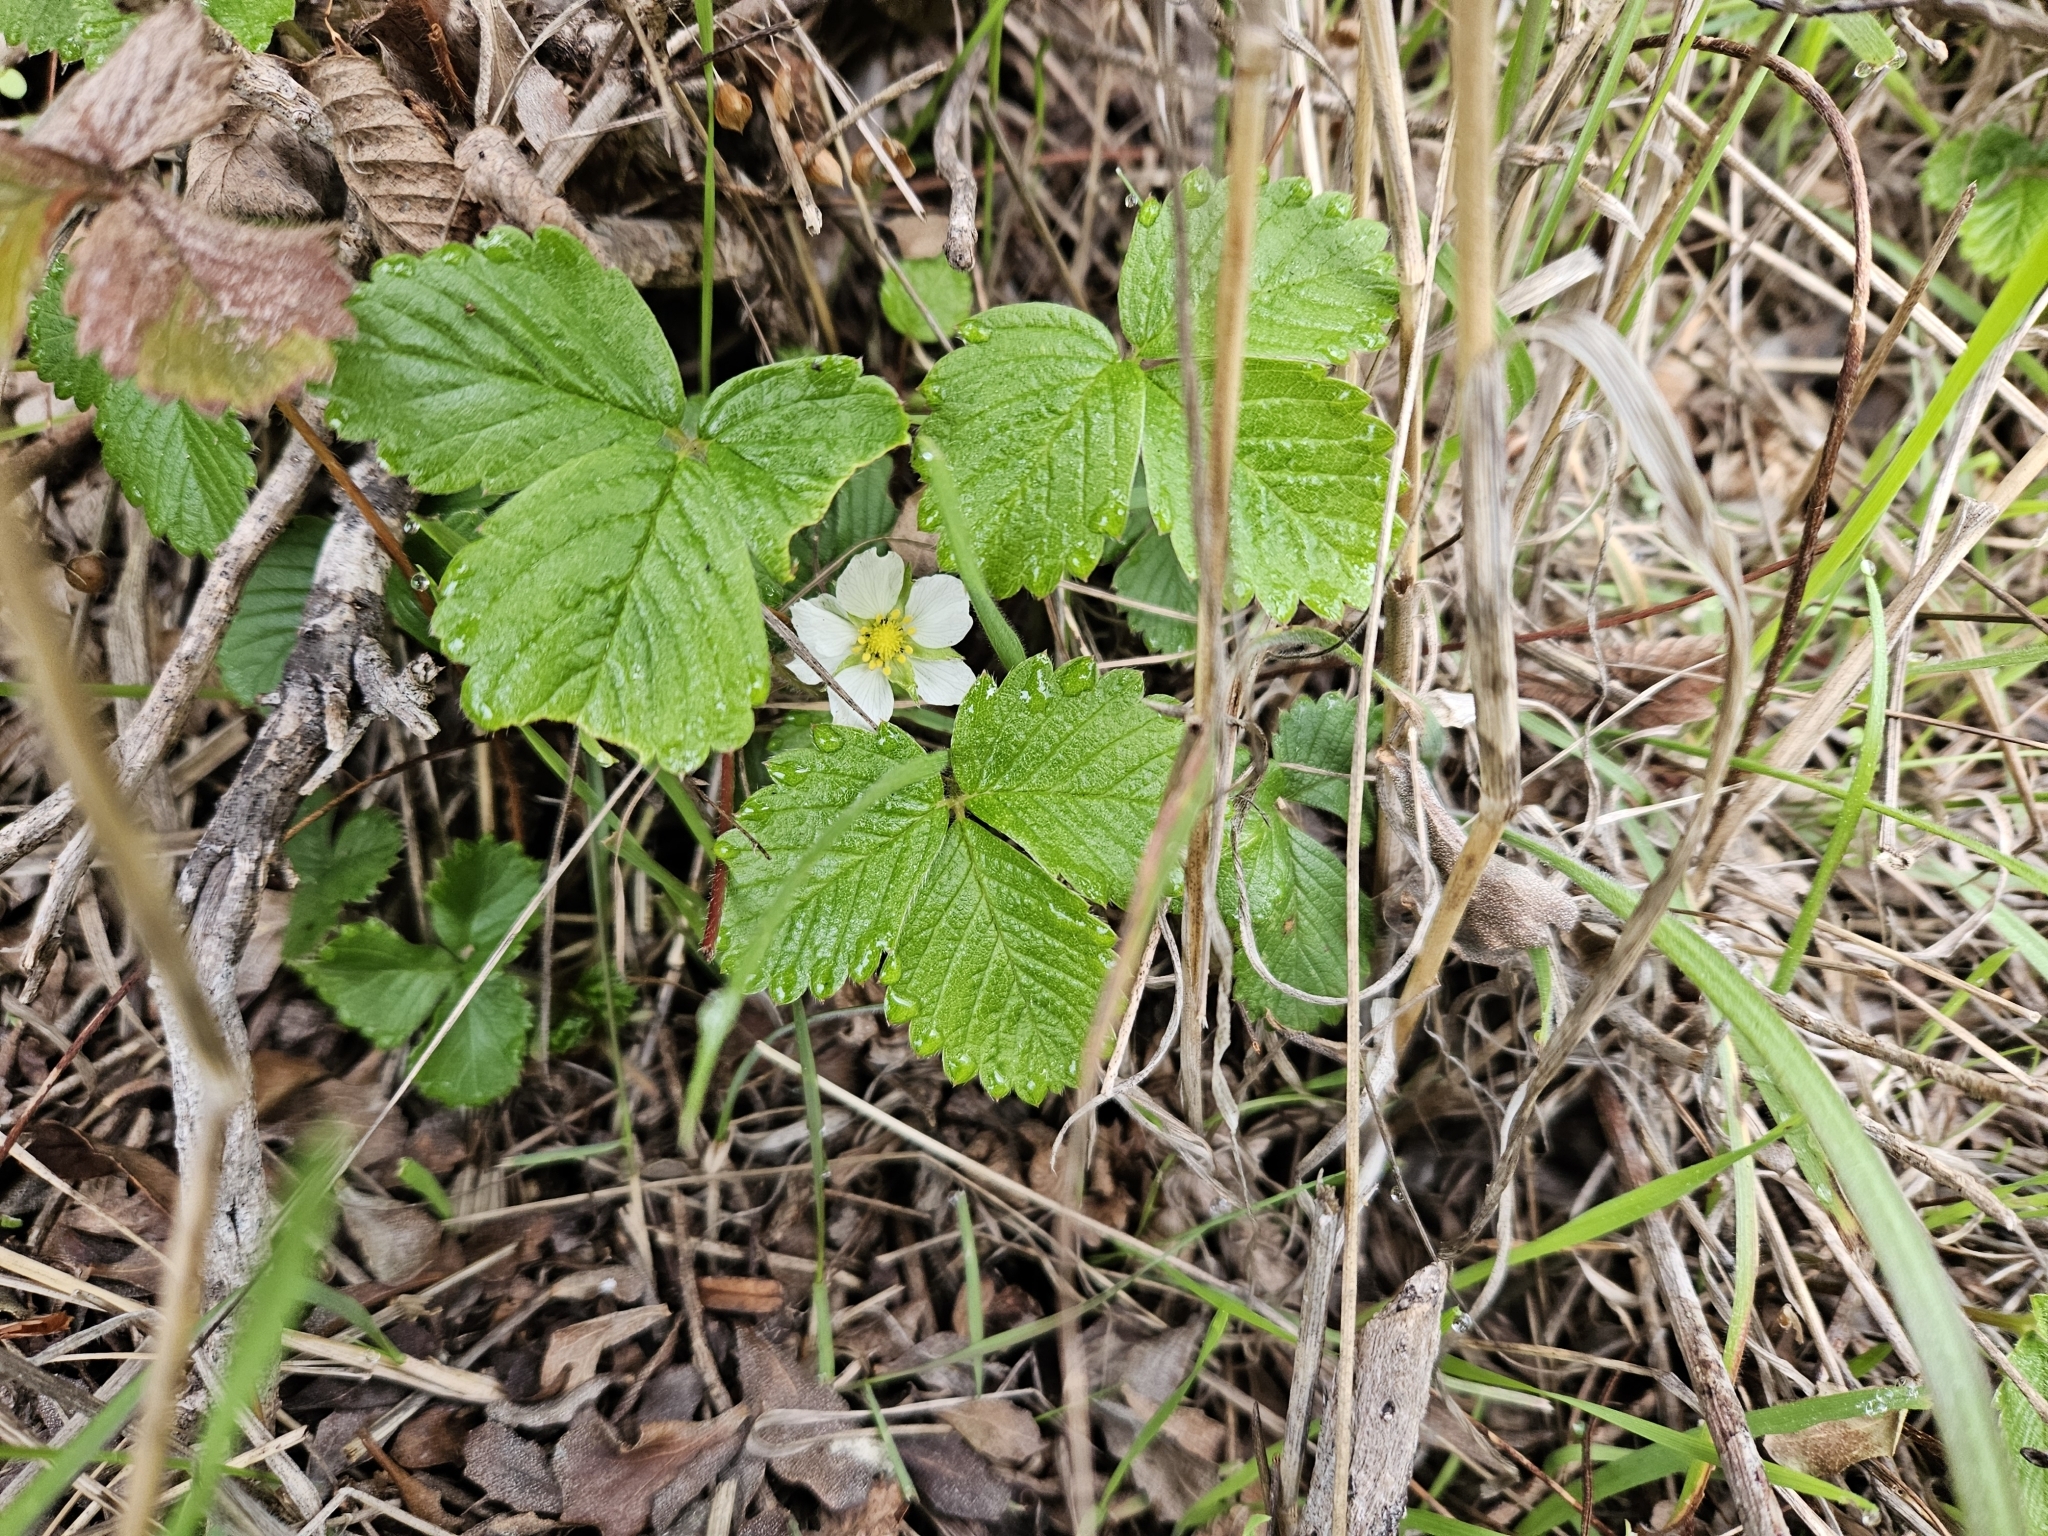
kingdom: Plantae
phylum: Tracheophyta
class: Magnoliopsida
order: Rosales
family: Rosaceae
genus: Fragaria
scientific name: Fragaria vesca
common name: Wild strawberry
